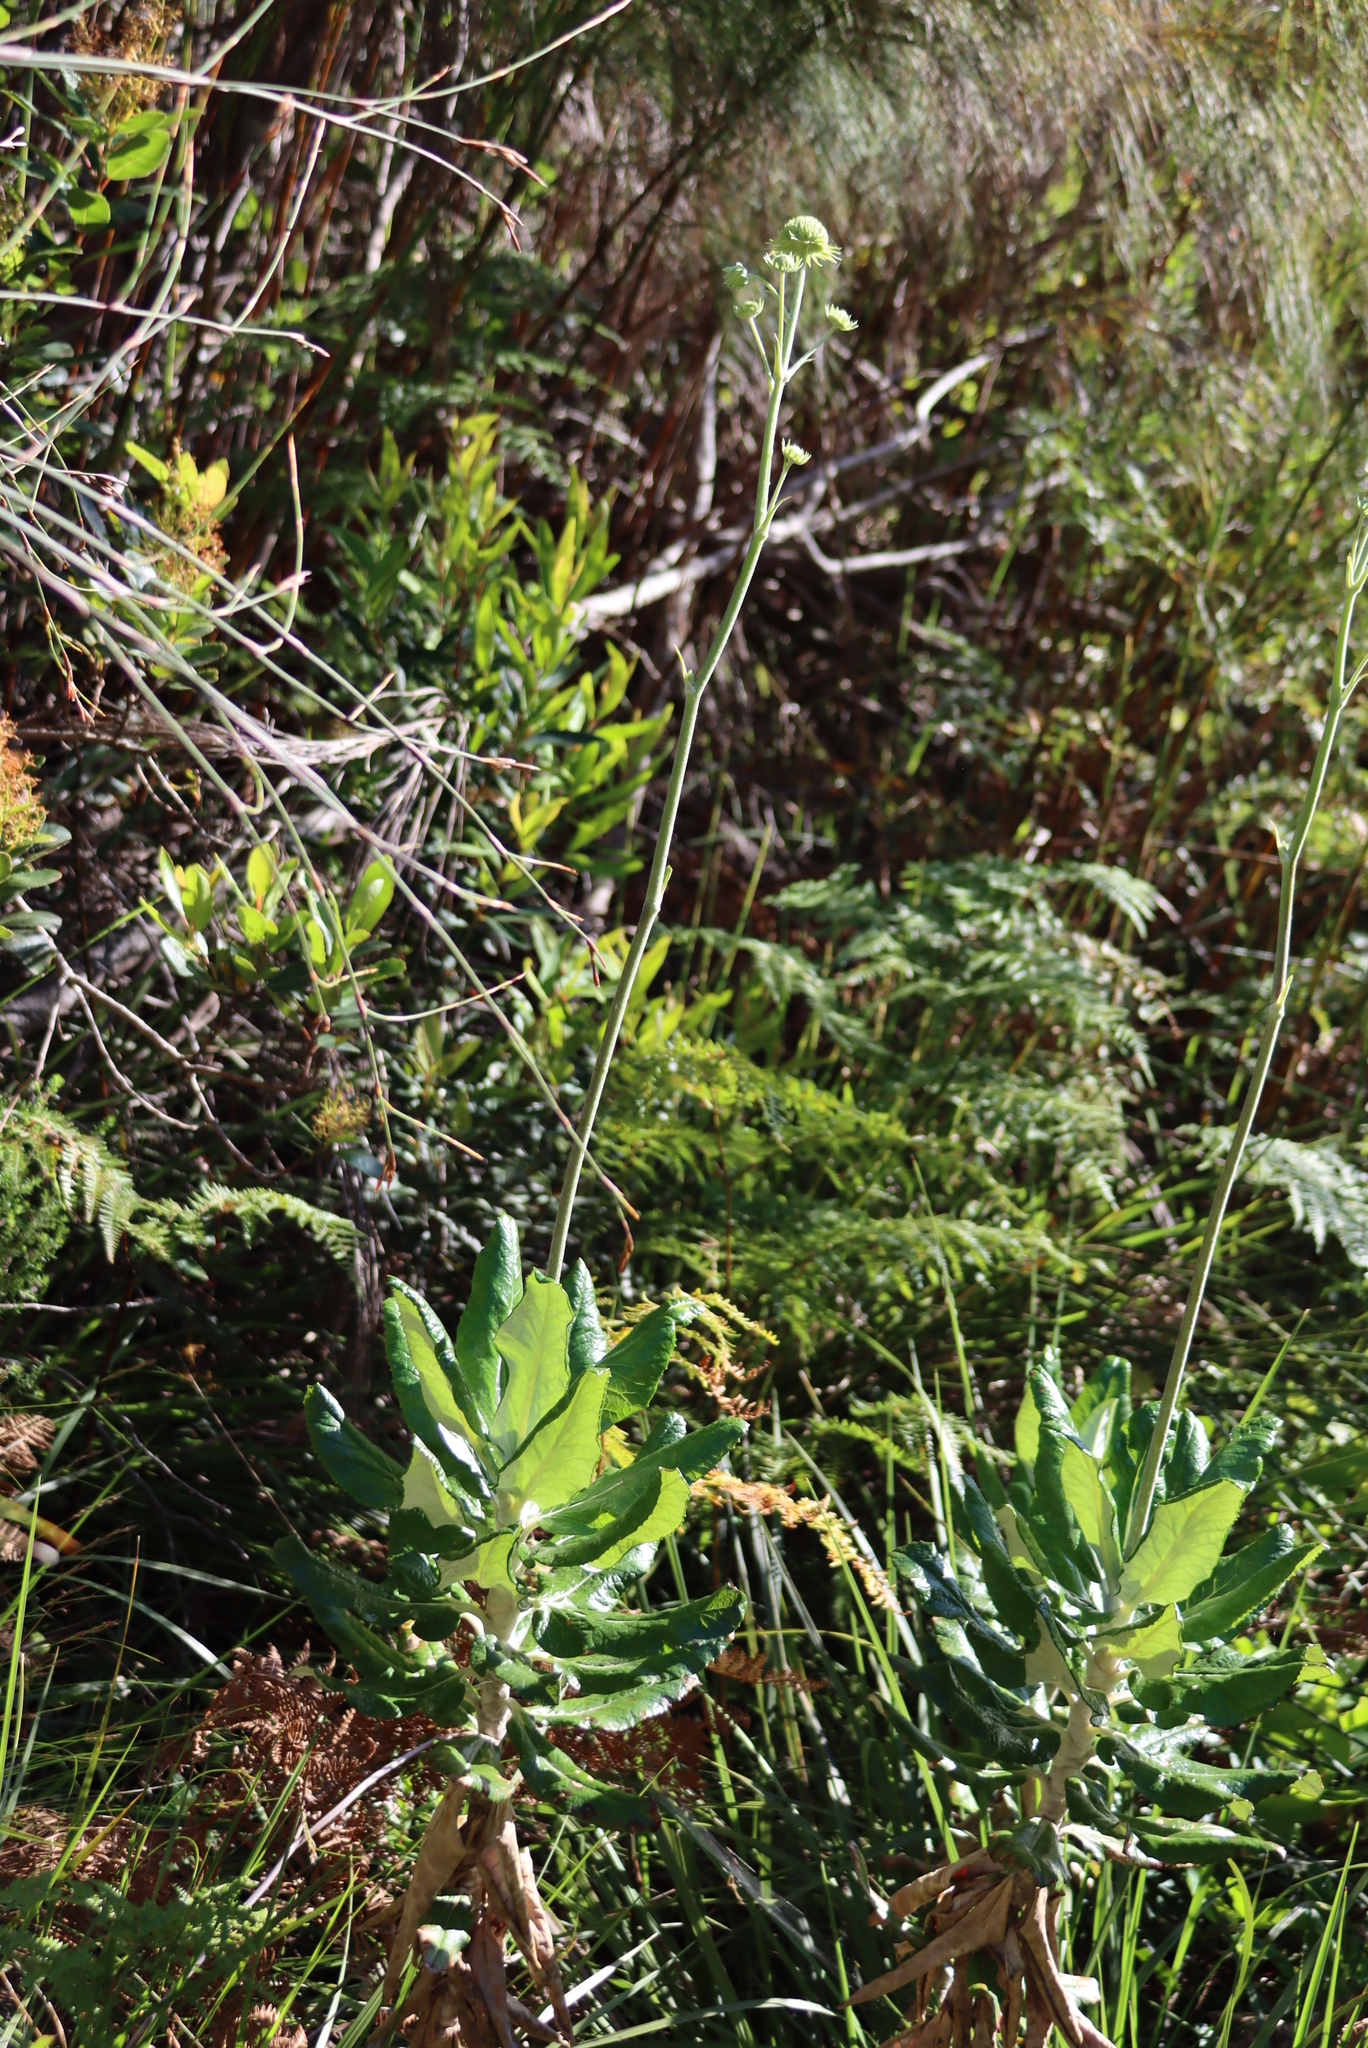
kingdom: Plantae
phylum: Tracheophyta
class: Magnoliopsida
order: Apiales
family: Apiaceae
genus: Hermas
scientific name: Hermas villosa
